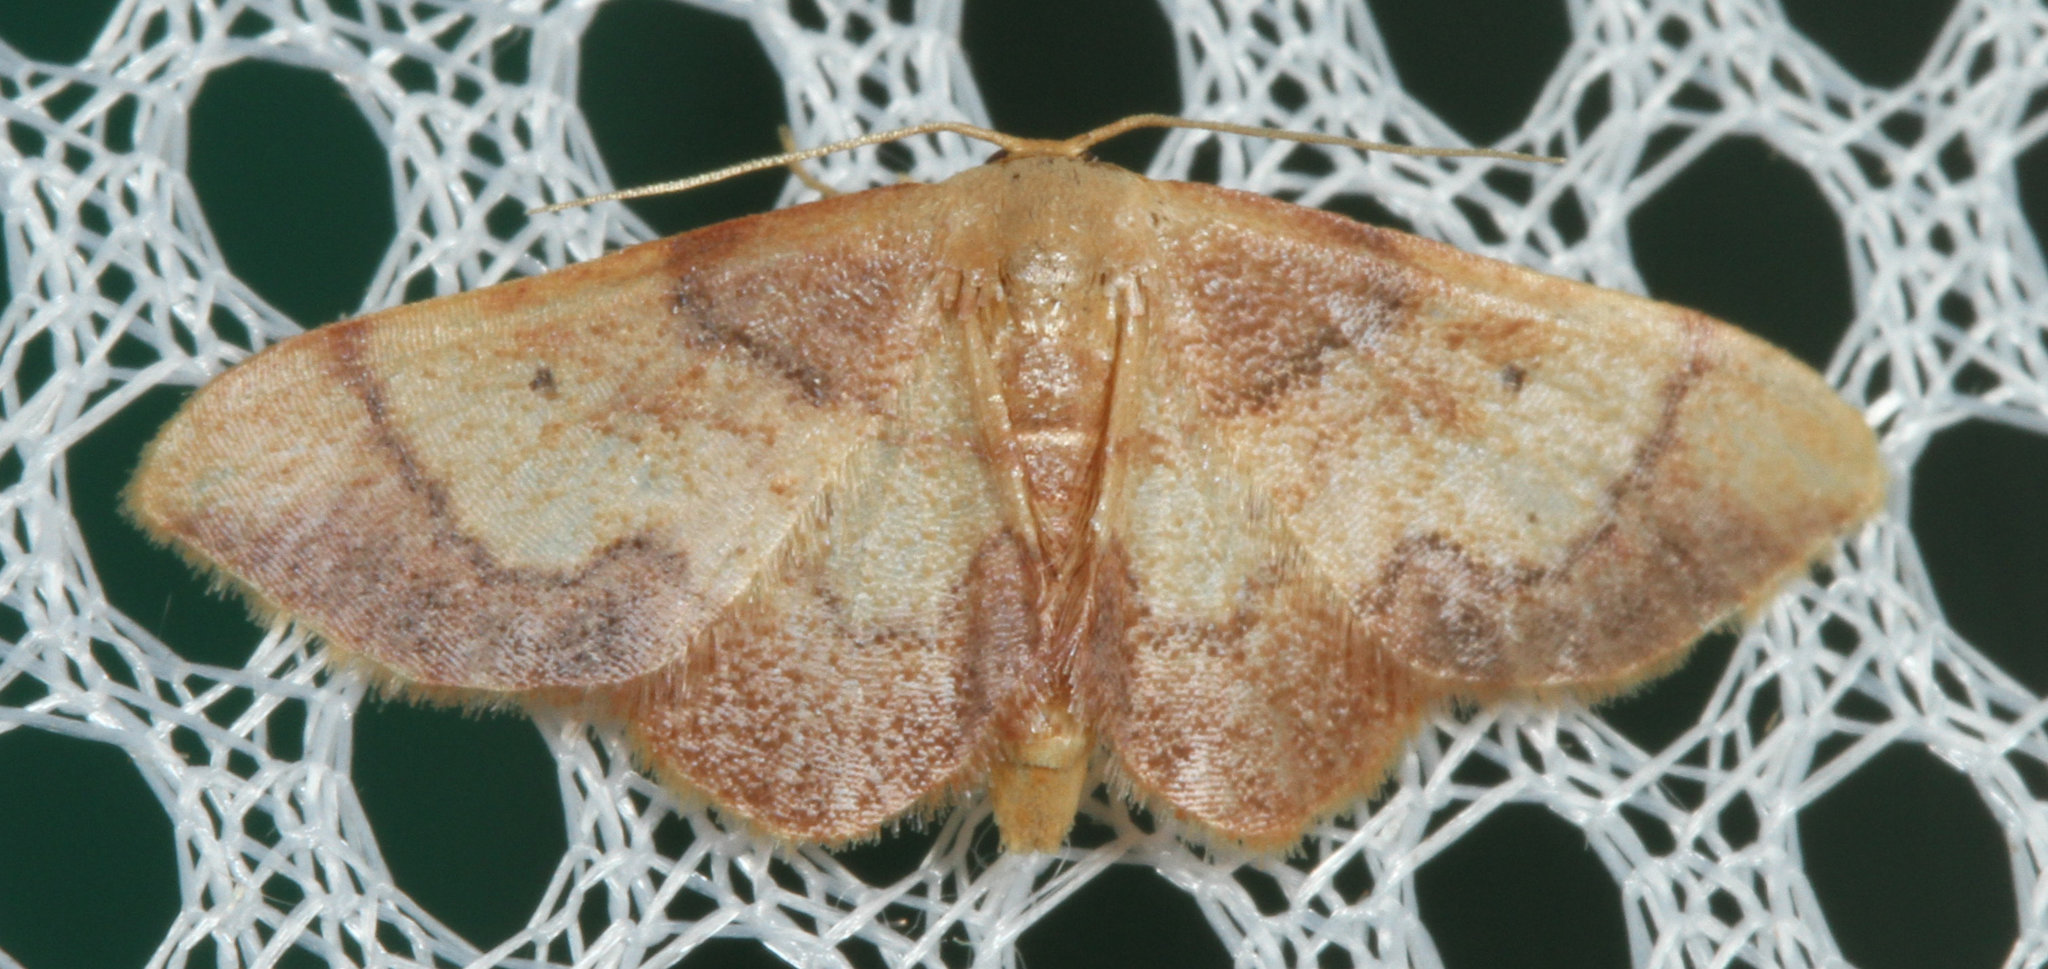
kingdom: Animalia
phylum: Arthropoda
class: Insecta
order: Lepidoptera
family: Geometridae
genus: Idaea
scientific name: Idaea demissaria
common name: Red-bordered wave
